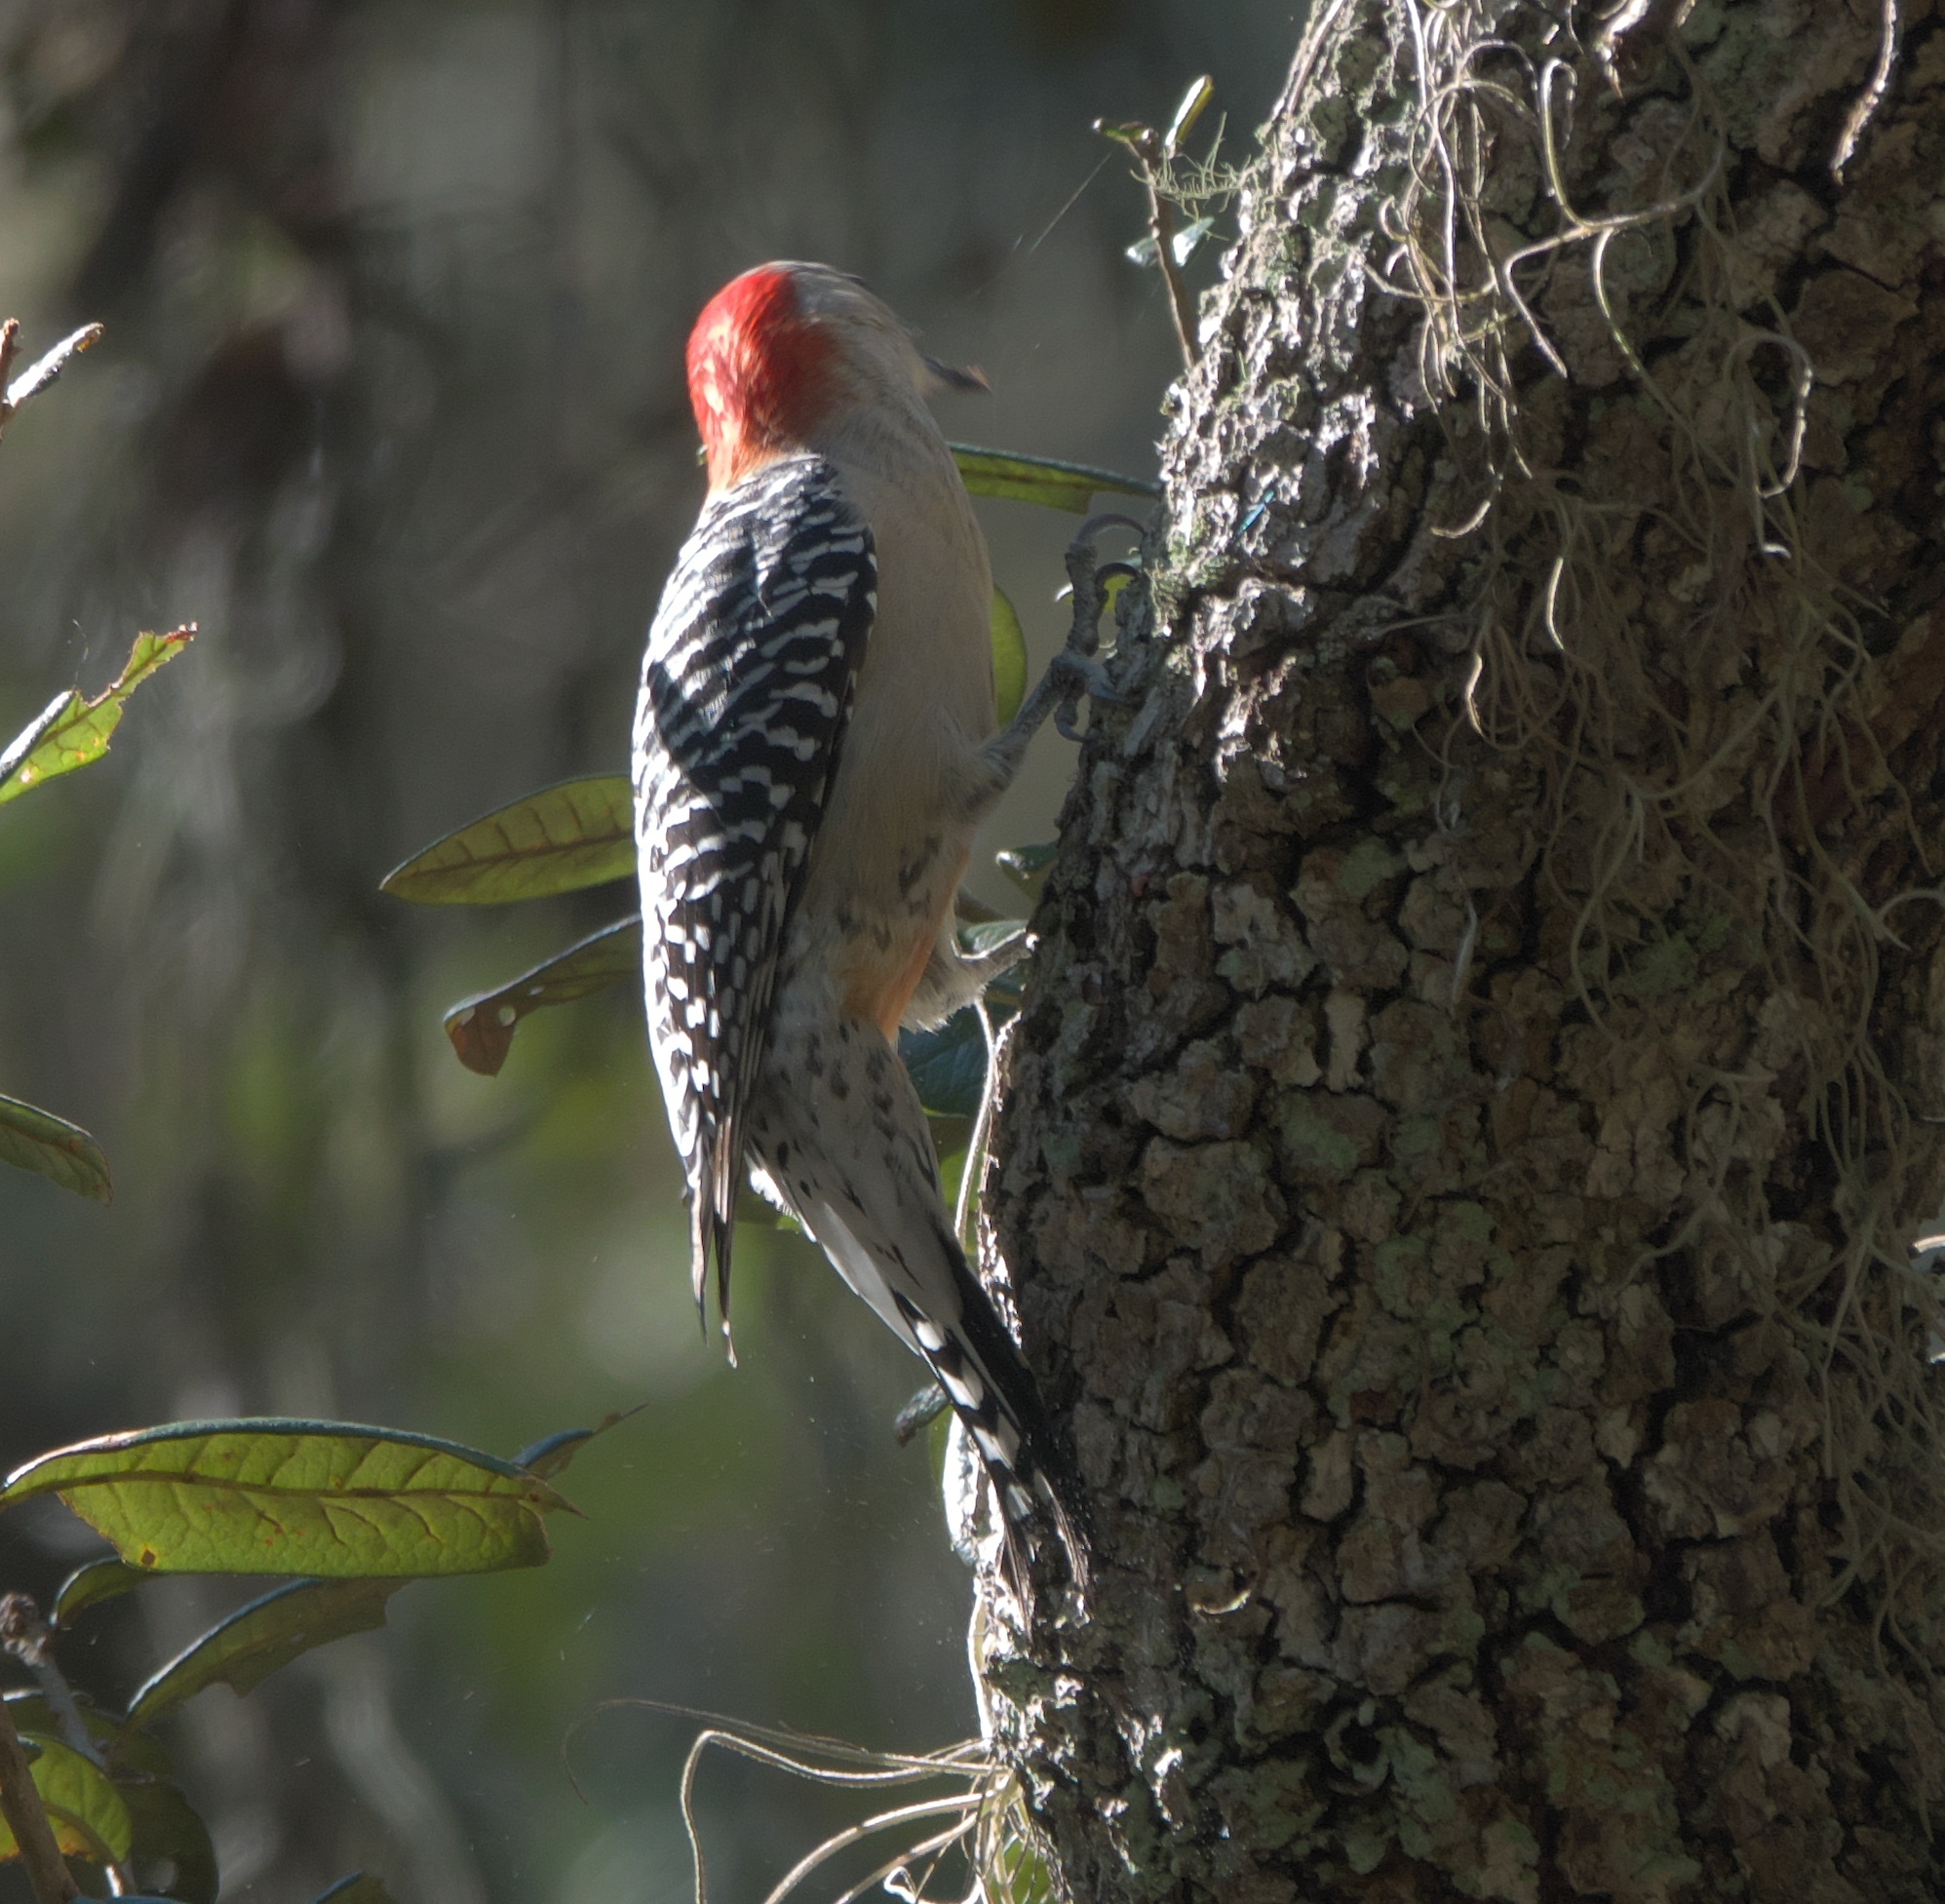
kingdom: Animalia
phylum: Chordata
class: Aves
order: Piciformes
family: Picidae
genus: Melanerpes
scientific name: Melanerpes carolinus
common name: Red-bellied woodpecker
